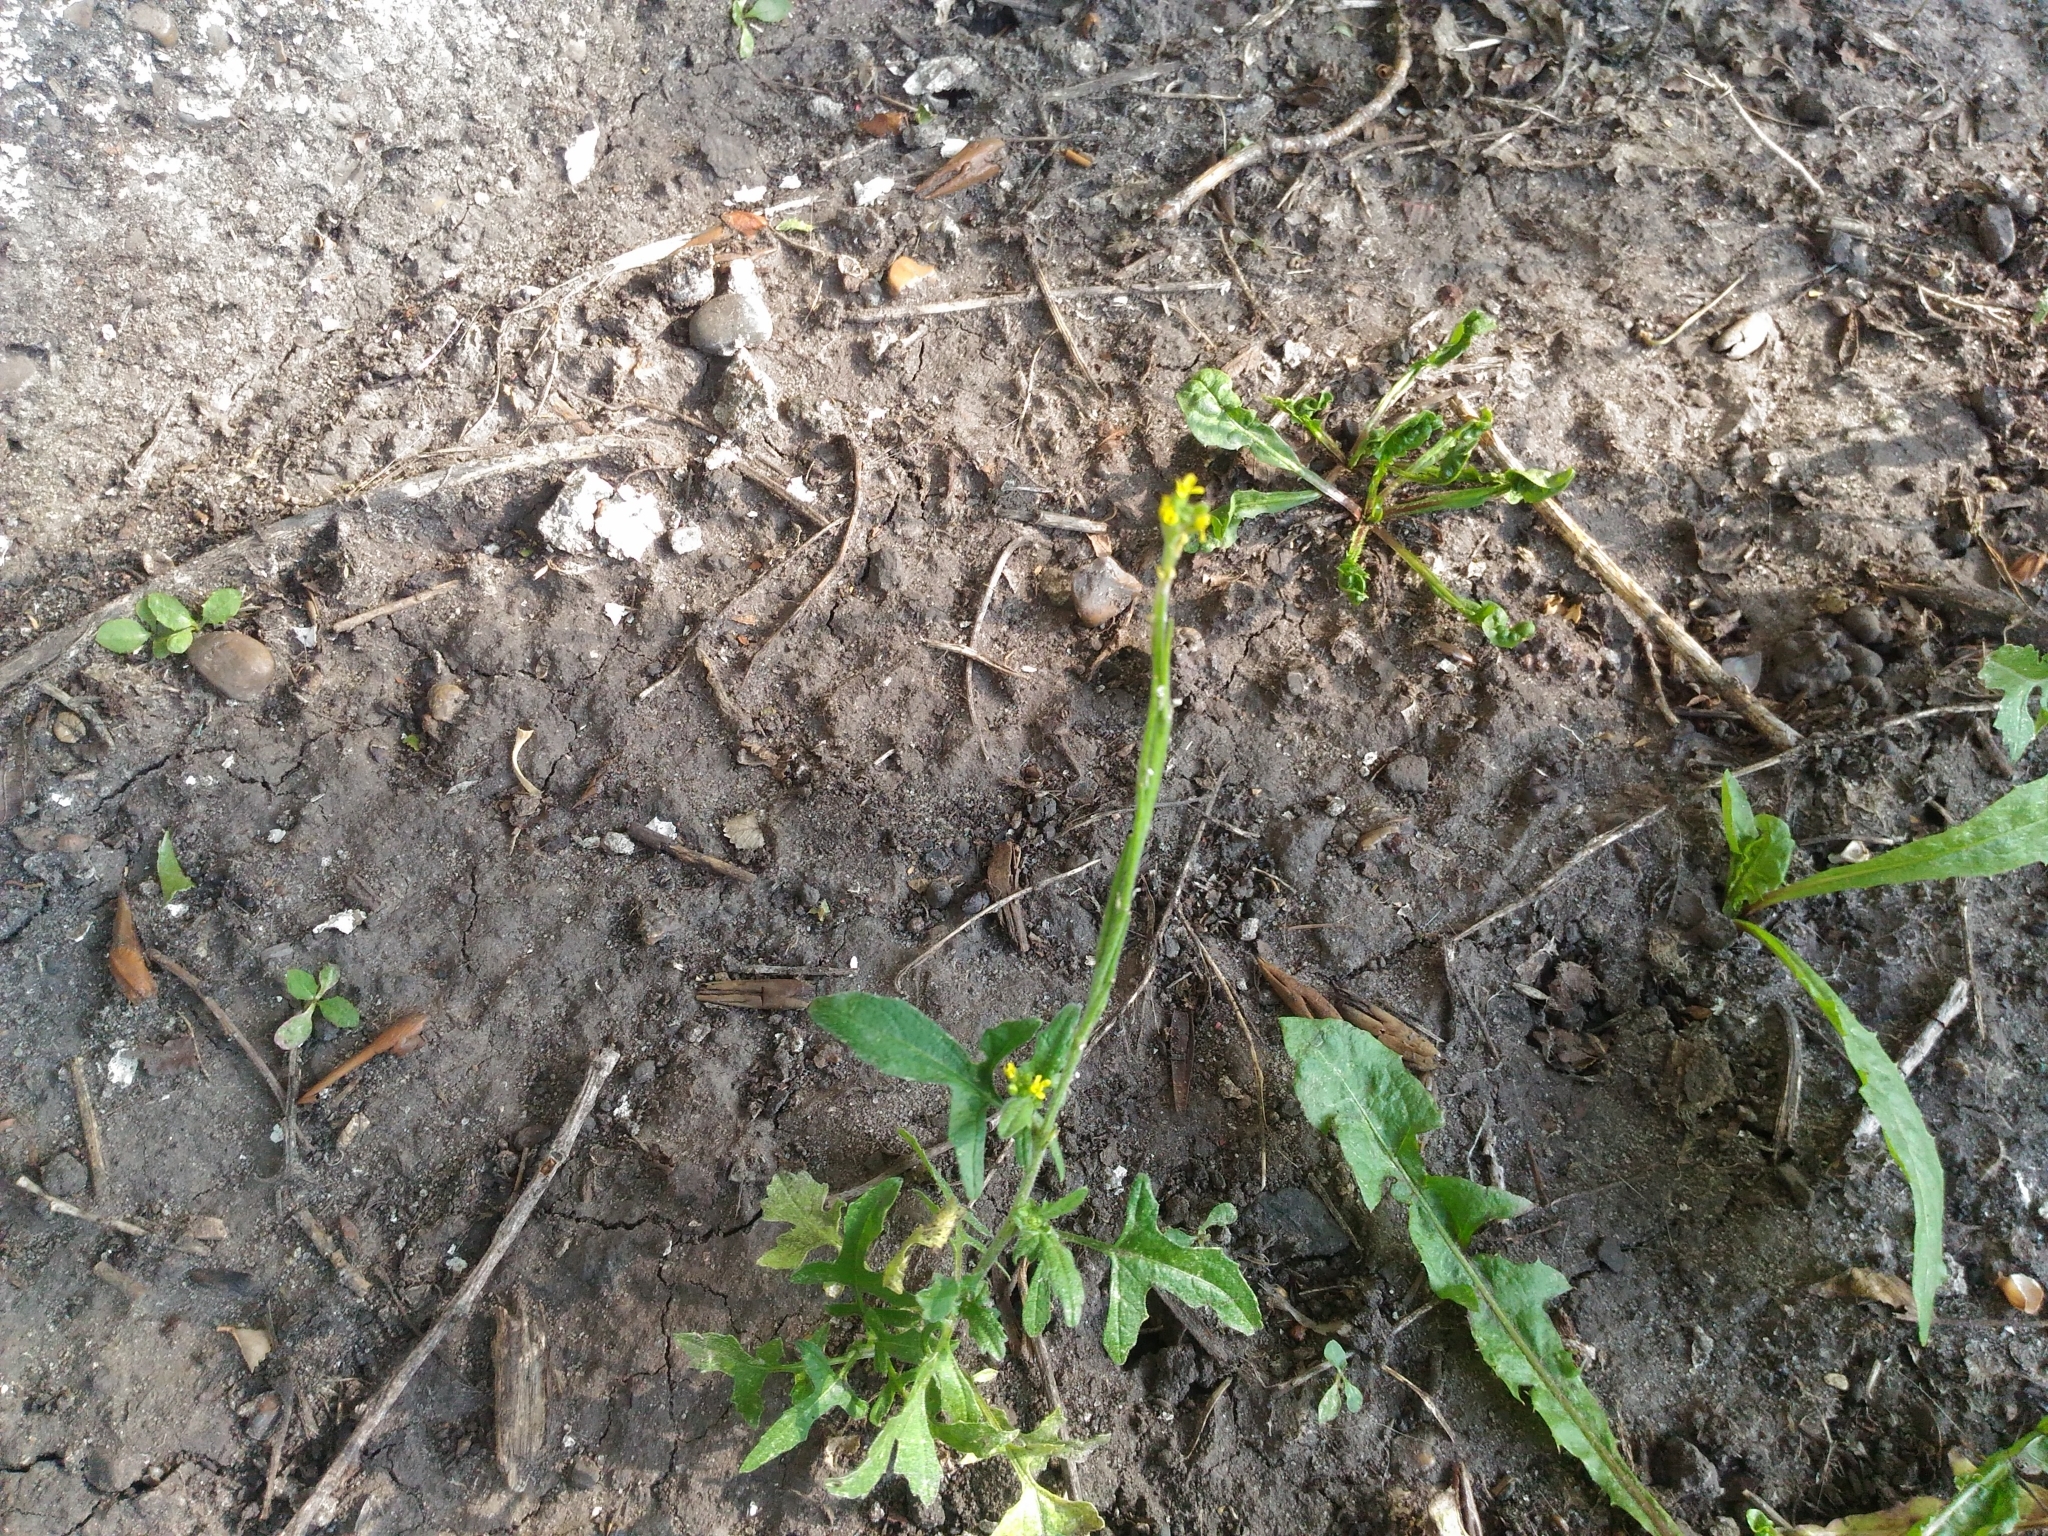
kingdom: Plantae
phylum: Tracheophyta
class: Magnoliopsida
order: Brassicales
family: Brassicaceae
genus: Sisymbrium
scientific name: Sisymbrium officinale
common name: Hedge mustard
